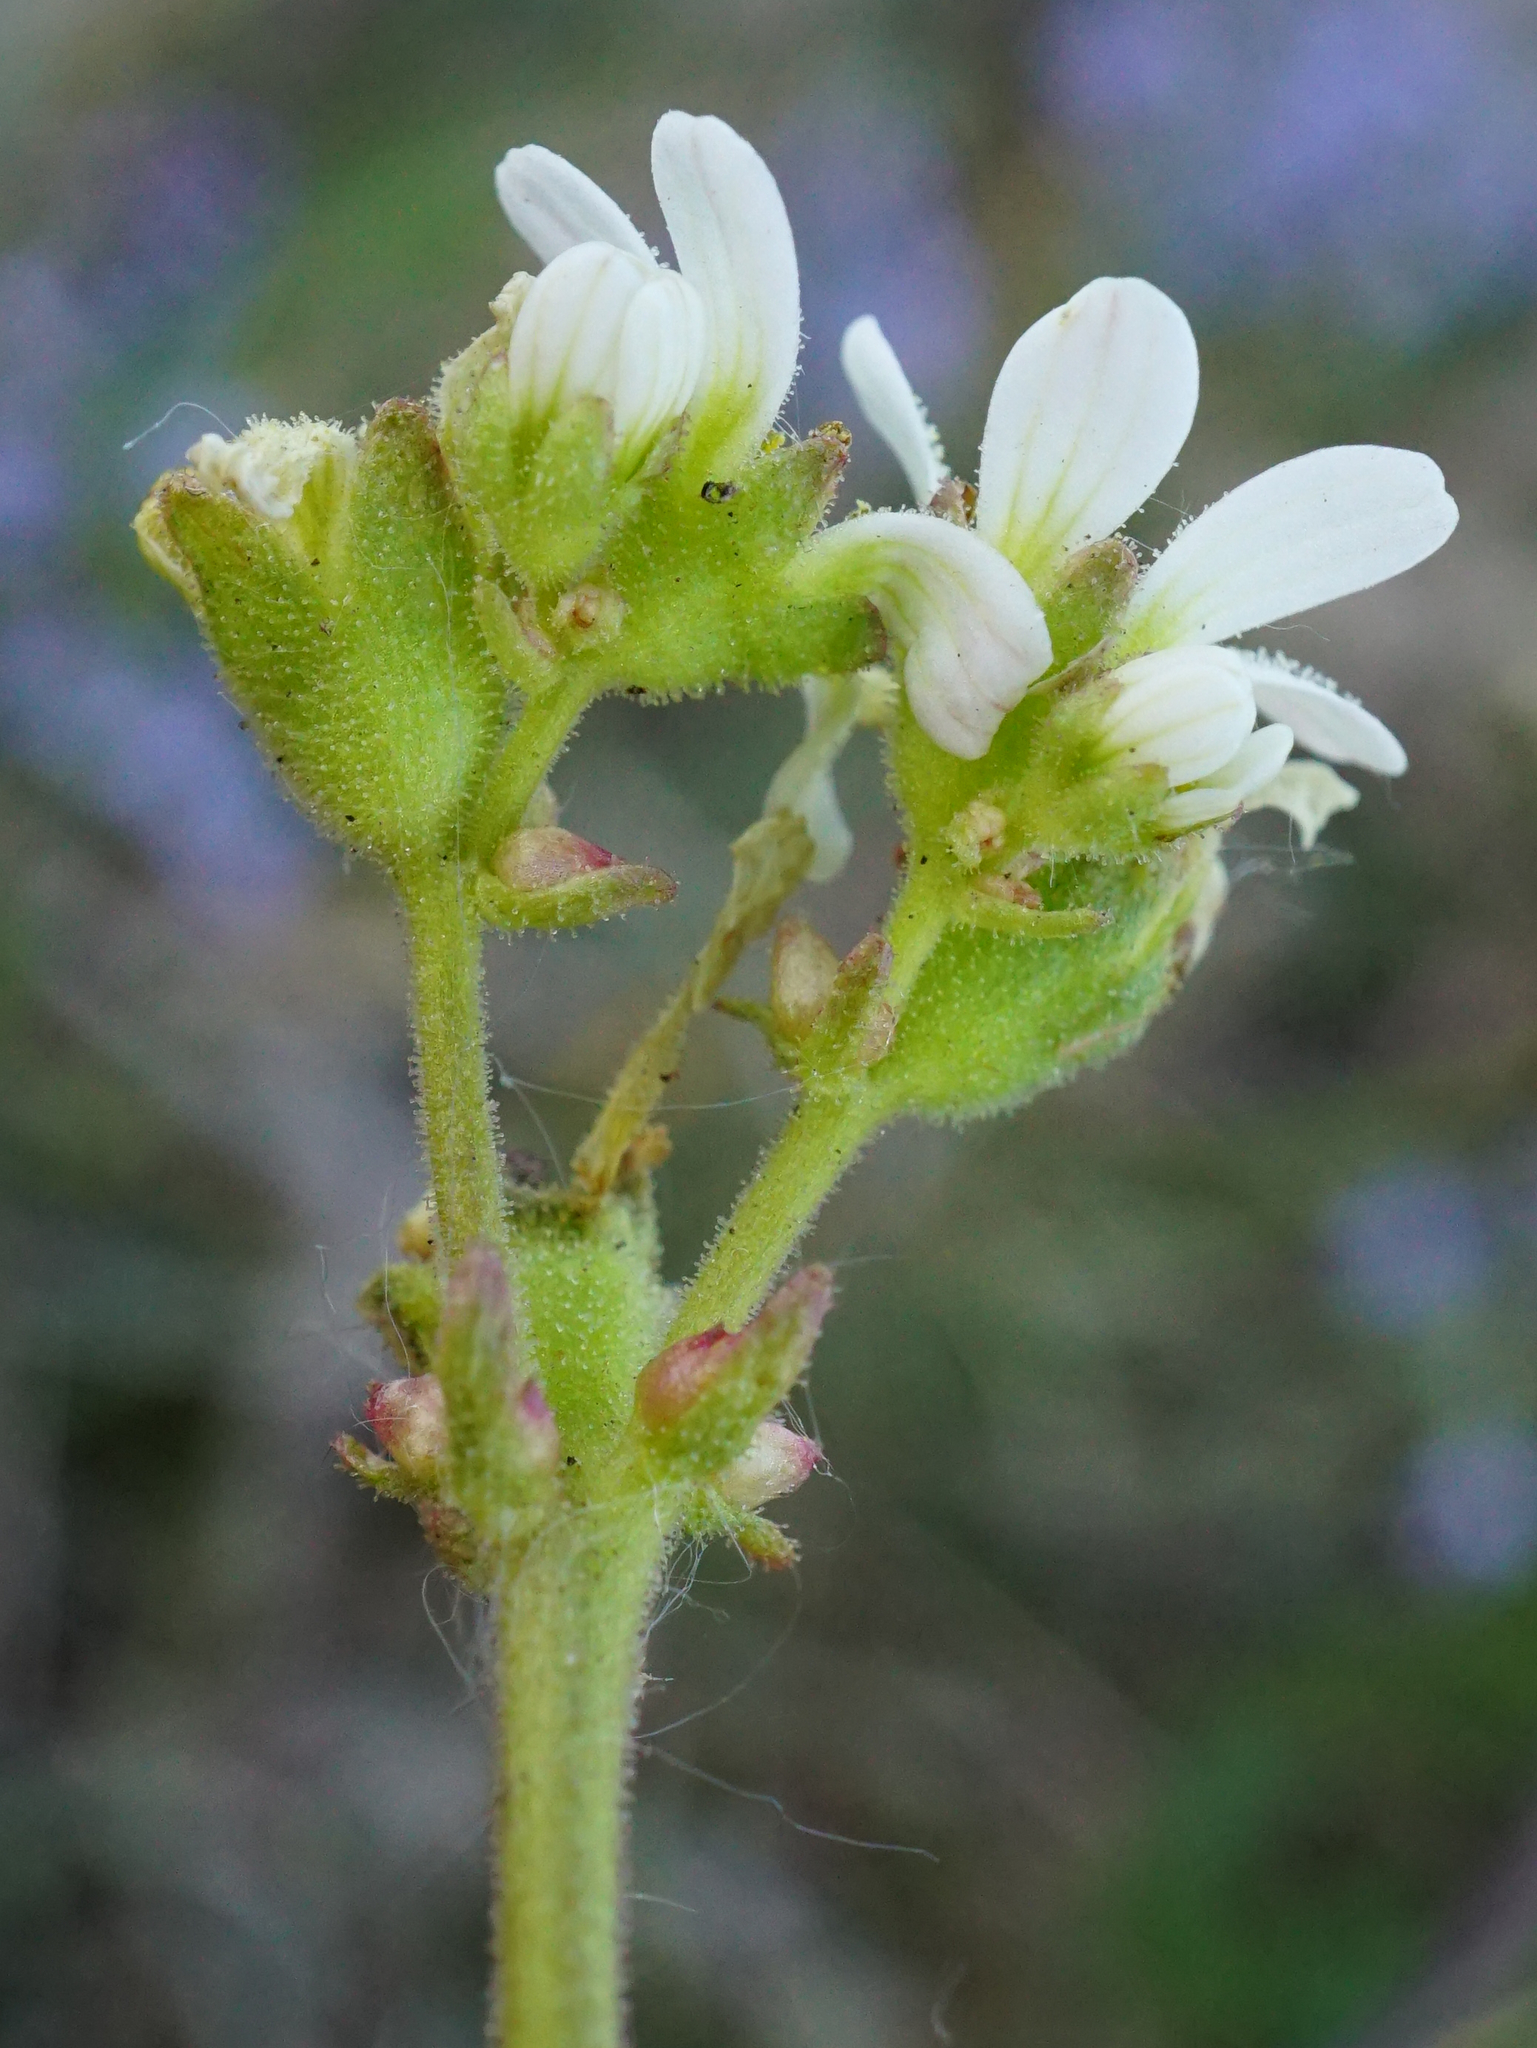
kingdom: Plantae
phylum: Tracheophyta
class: Magnoliopsida
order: Saxifragales
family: Saxifragaceae
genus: Saxifraga
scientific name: Saxifraga bulbifera
